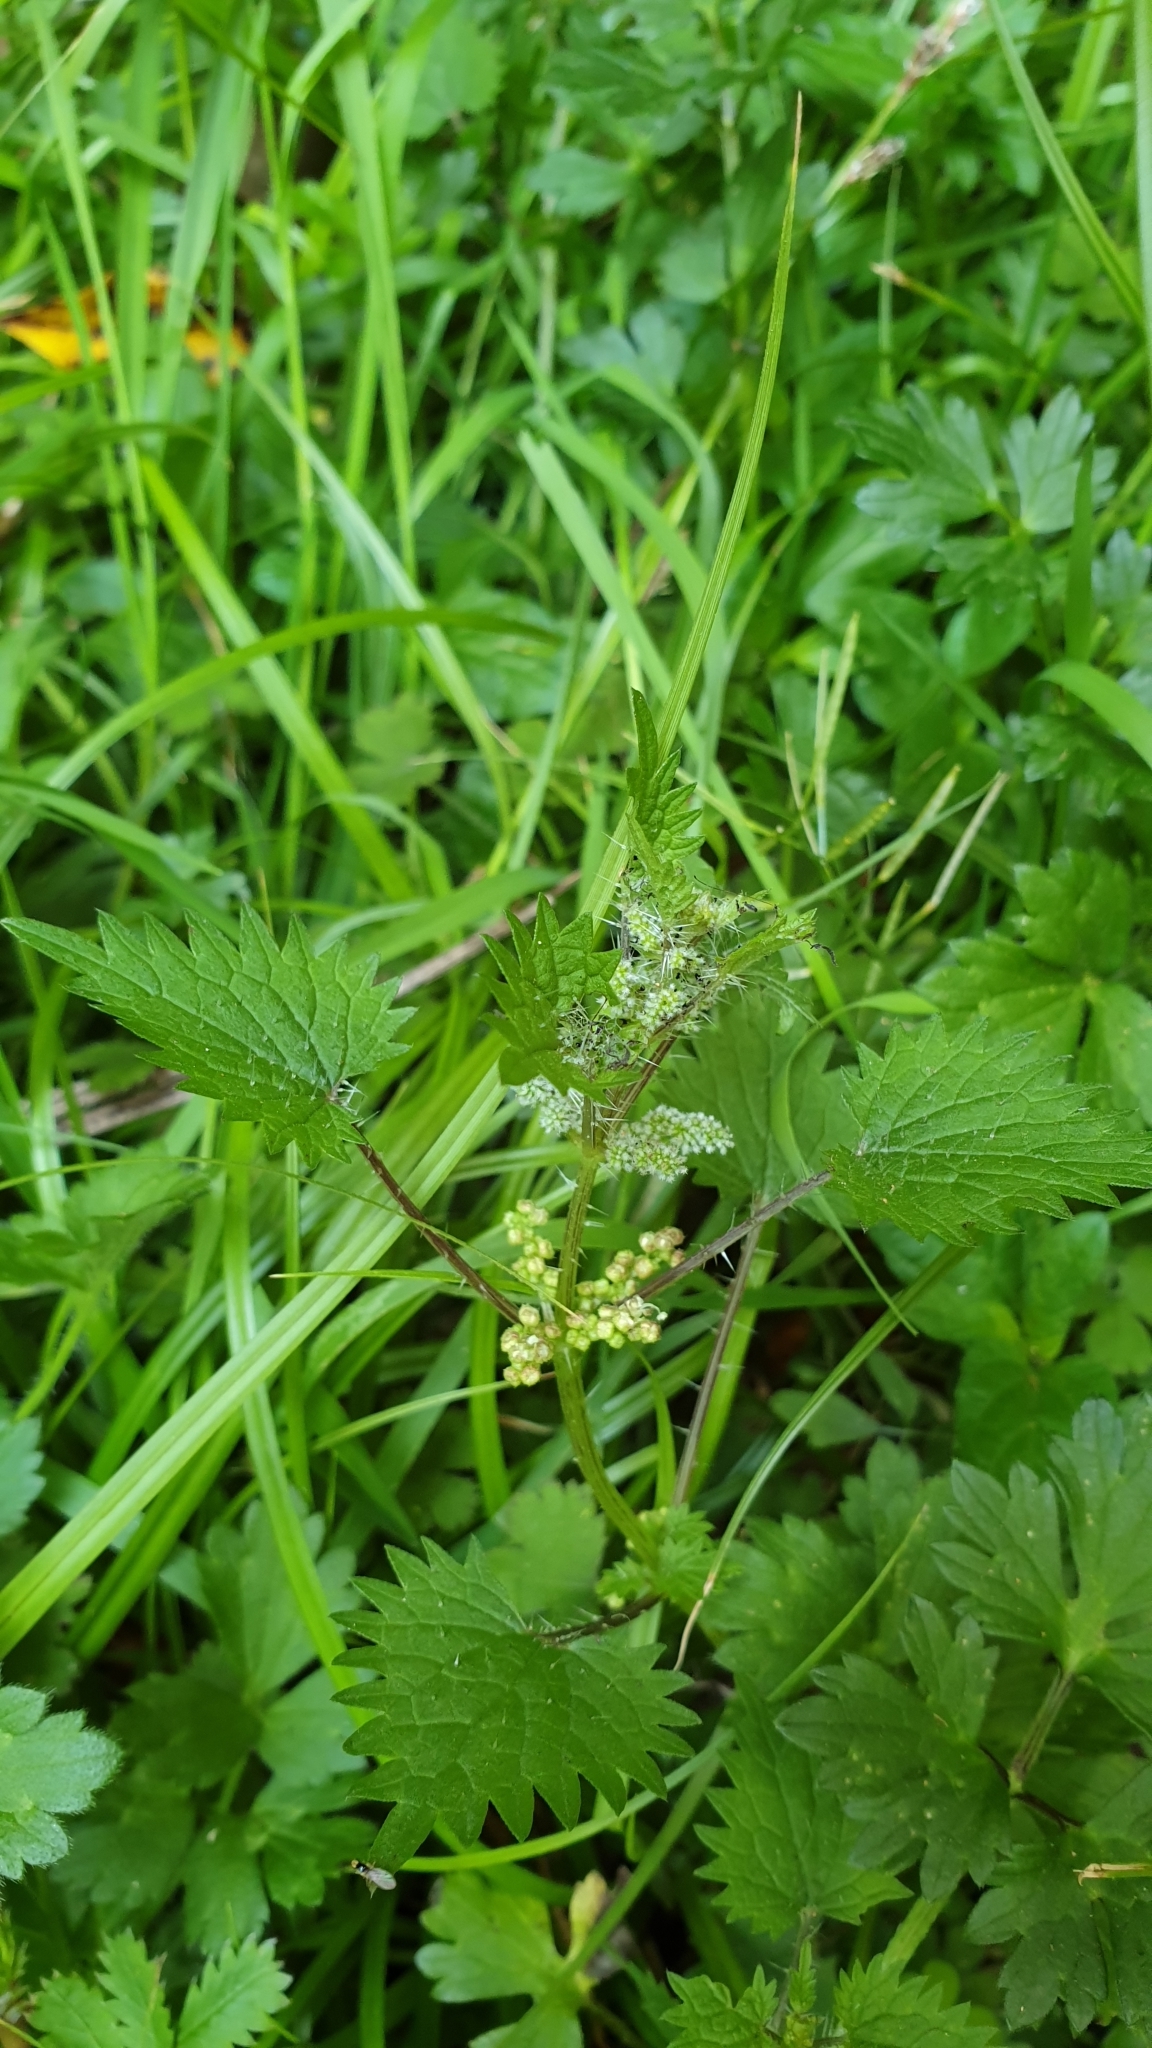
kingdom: Plantae
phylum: Tracheophyta
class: Magnoliopsida
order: Rosales
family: Urticaceae
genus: Urtica
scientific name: Urtica sykesii
